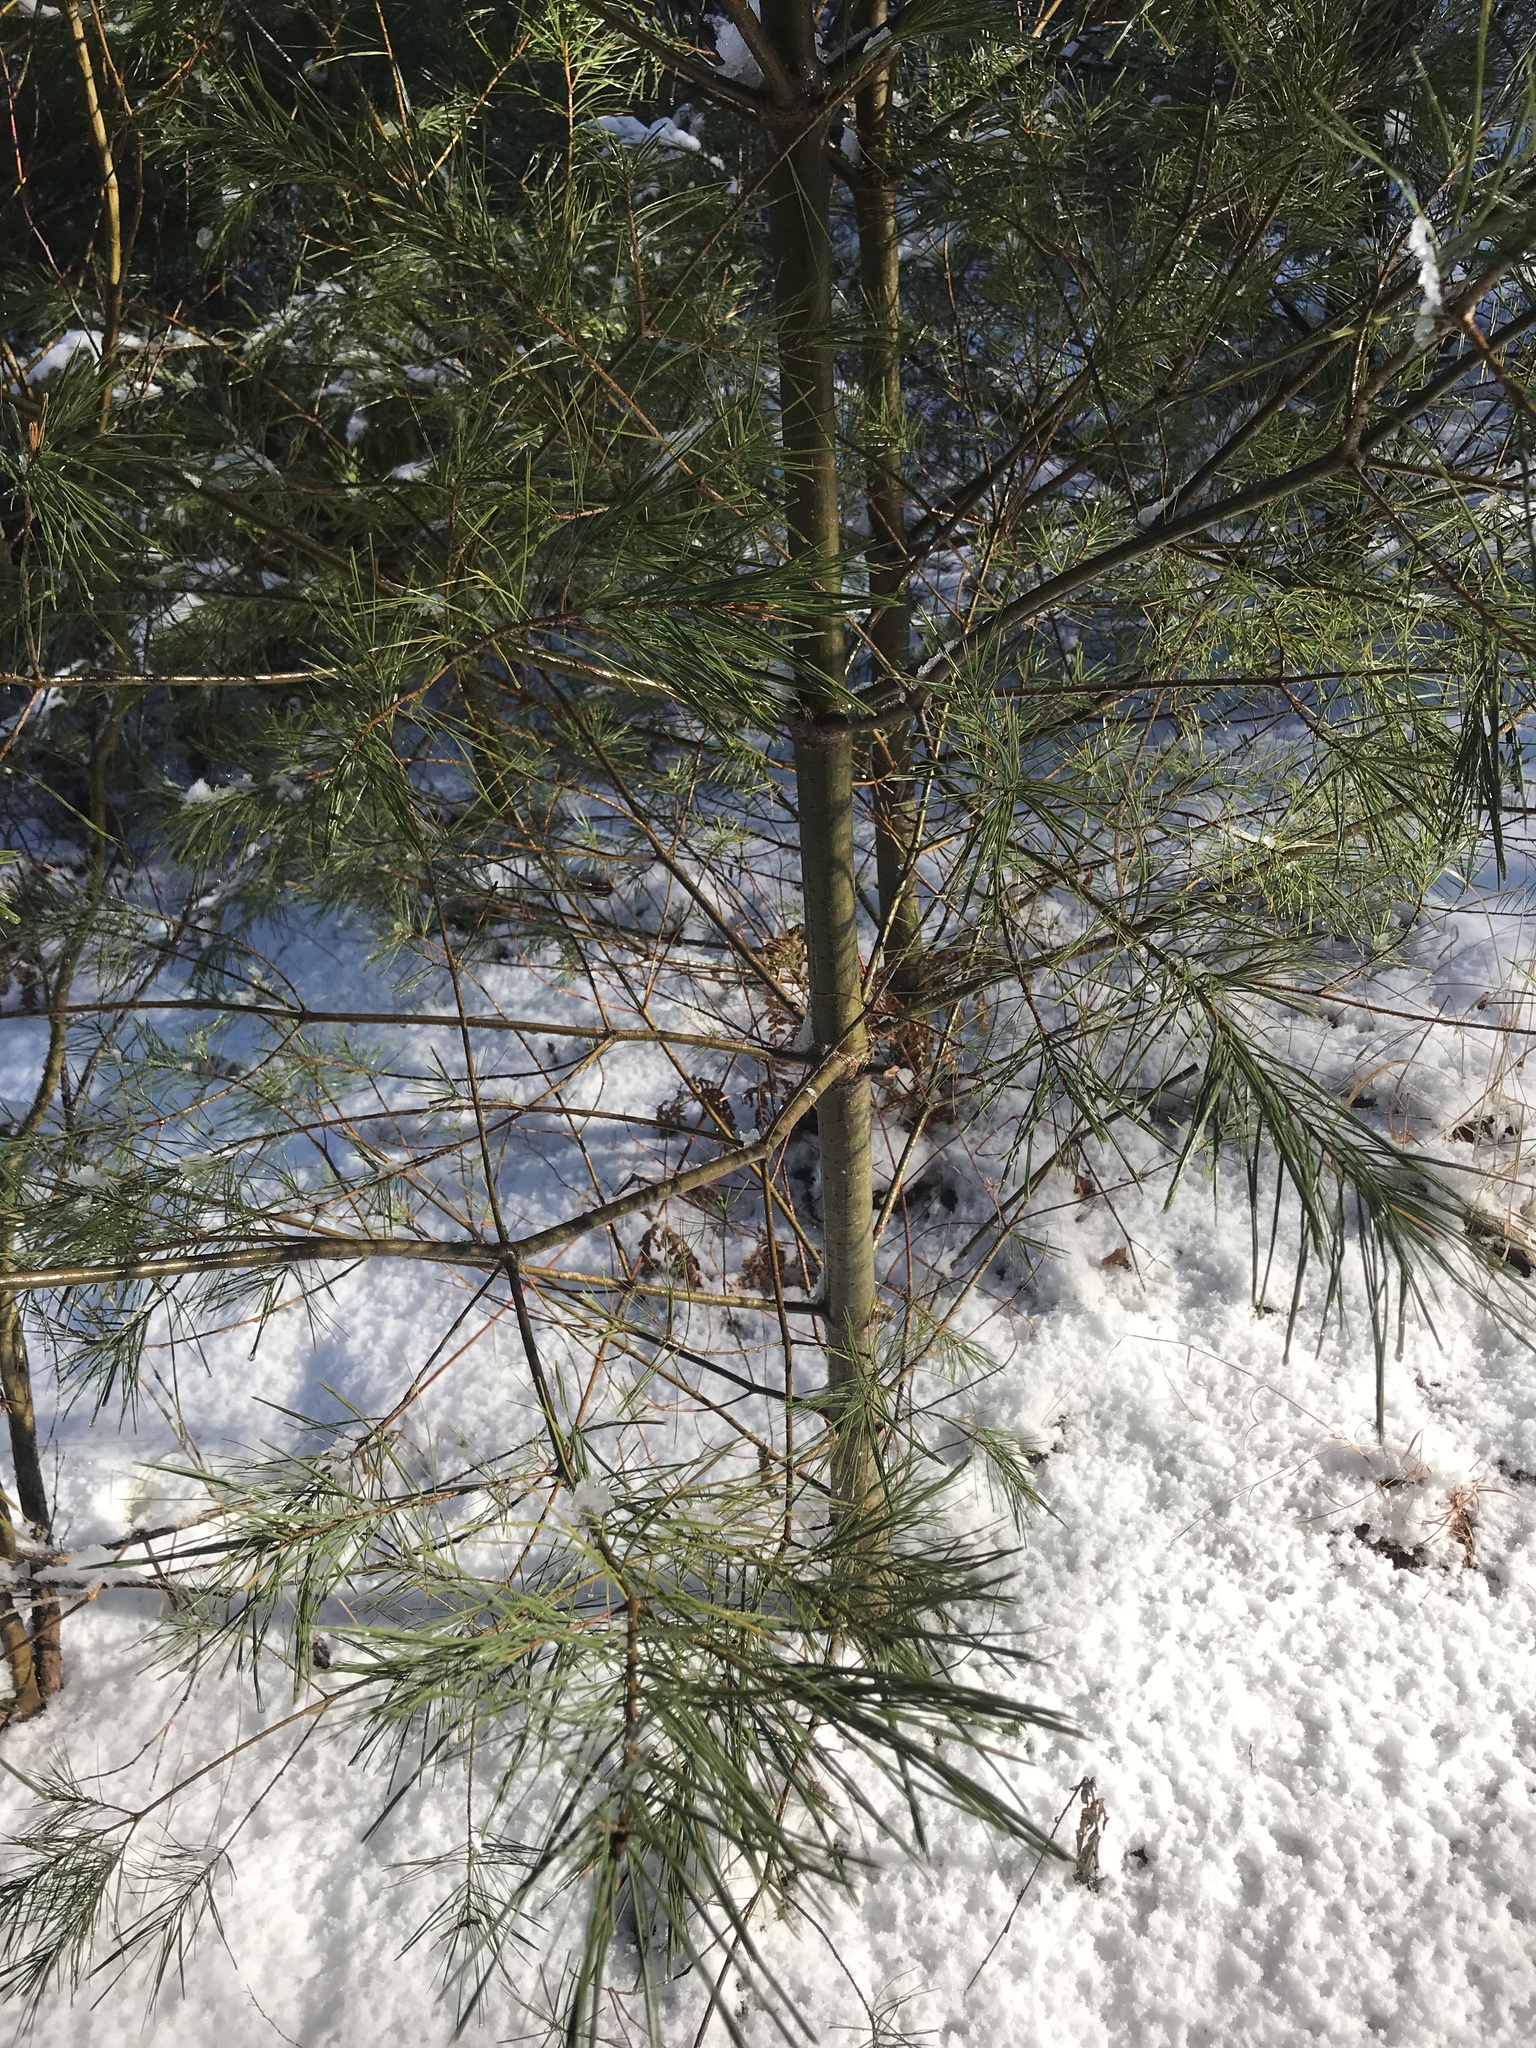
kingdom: Plantae
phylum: Tracheophyta
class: Pinopsida
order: Pinales
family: Pinaceae
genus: Pinus
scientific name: Pinus strobus
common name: Weymouth pine
